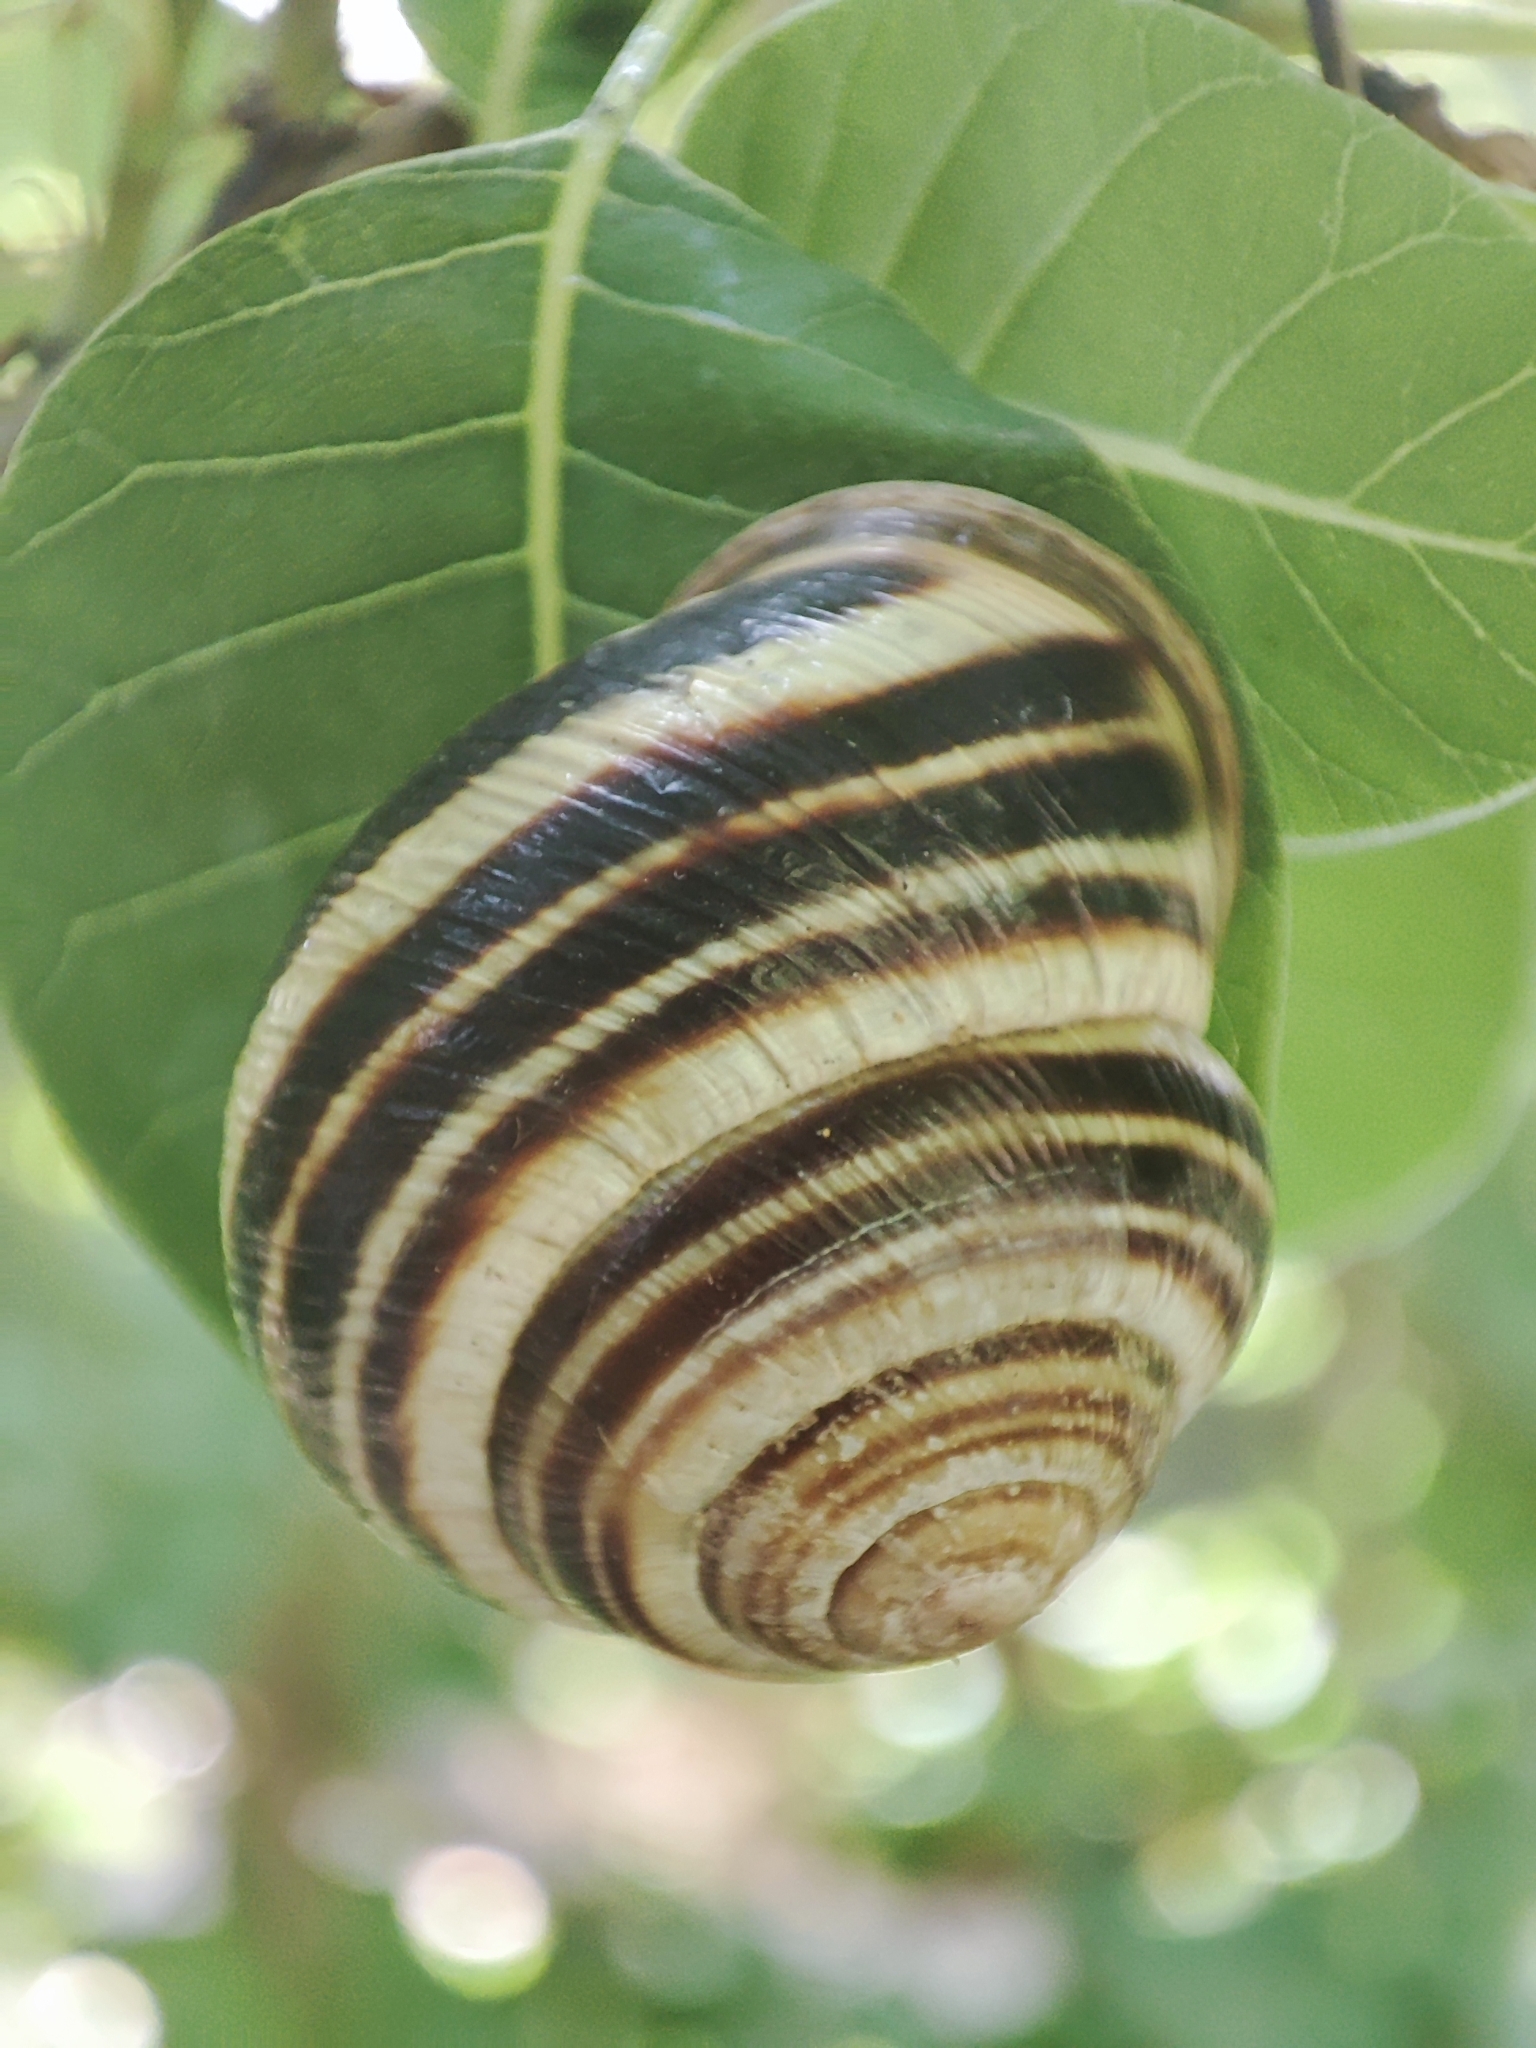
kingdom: Animalia
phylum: Mollusca
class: Gastropoda
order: Stylommatophora
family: Helicidae
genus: Caucasotachea
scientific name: Caucasotachea vindobonensis
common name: European helicid land snail
